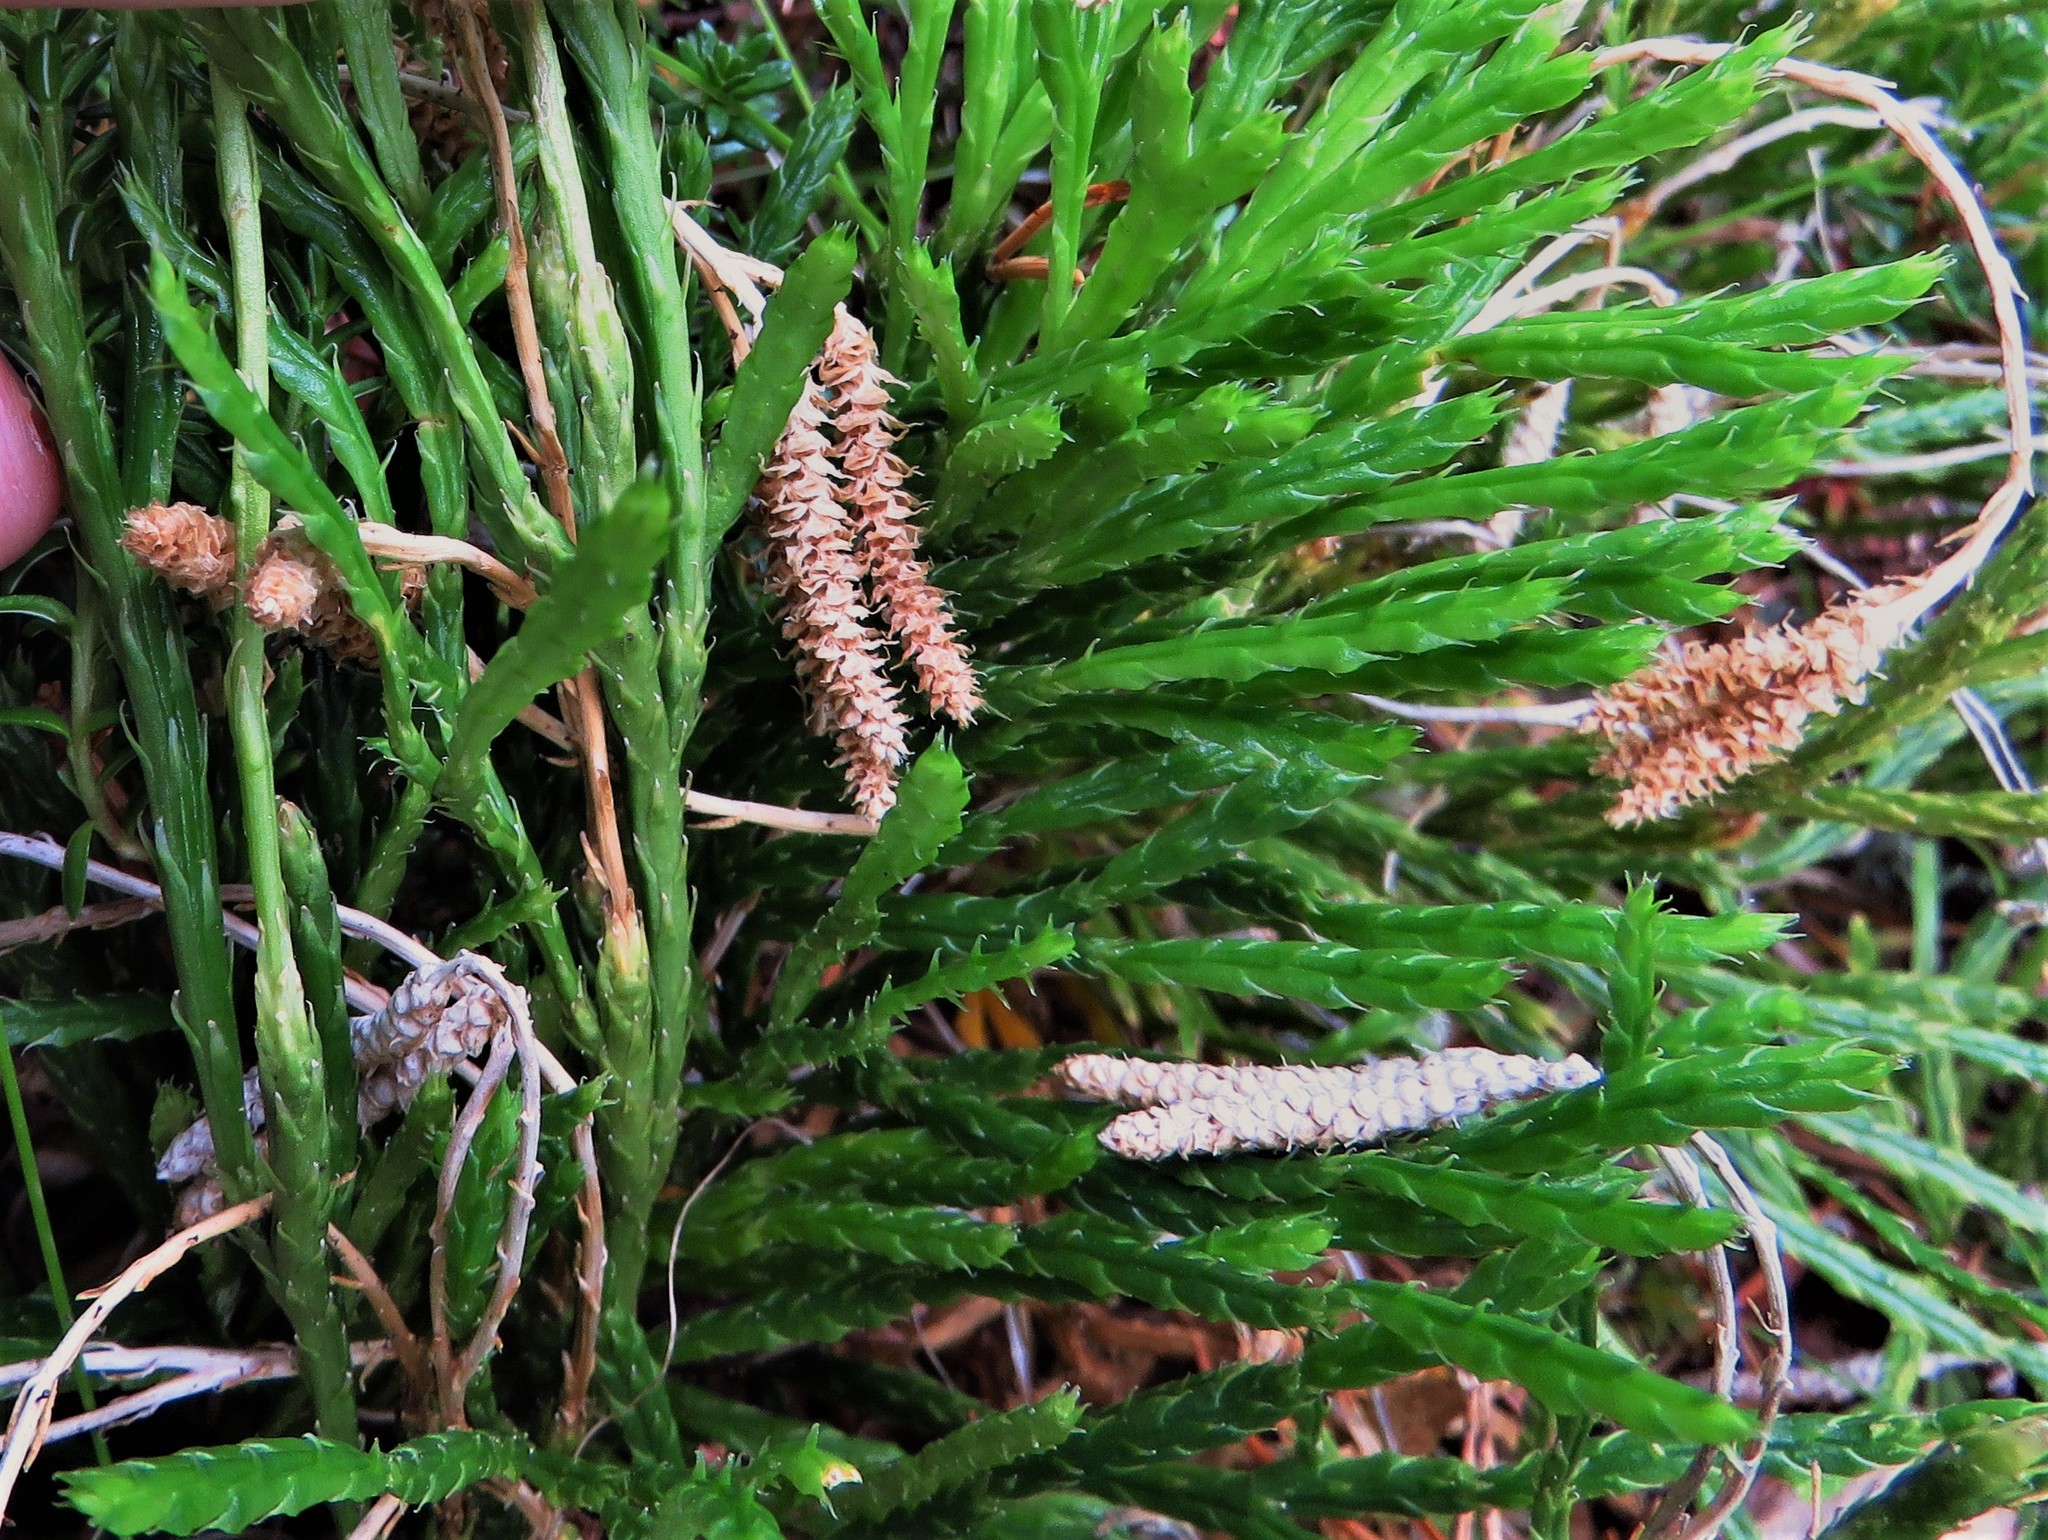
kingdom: Plantae
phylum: Tracheophyta
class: Lycopodiopsida
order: Lycopodiales
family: Lycopodiaceae
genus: Diphasiastrum
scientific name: Diphasiastrum complanatum
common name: Northern running-pine
